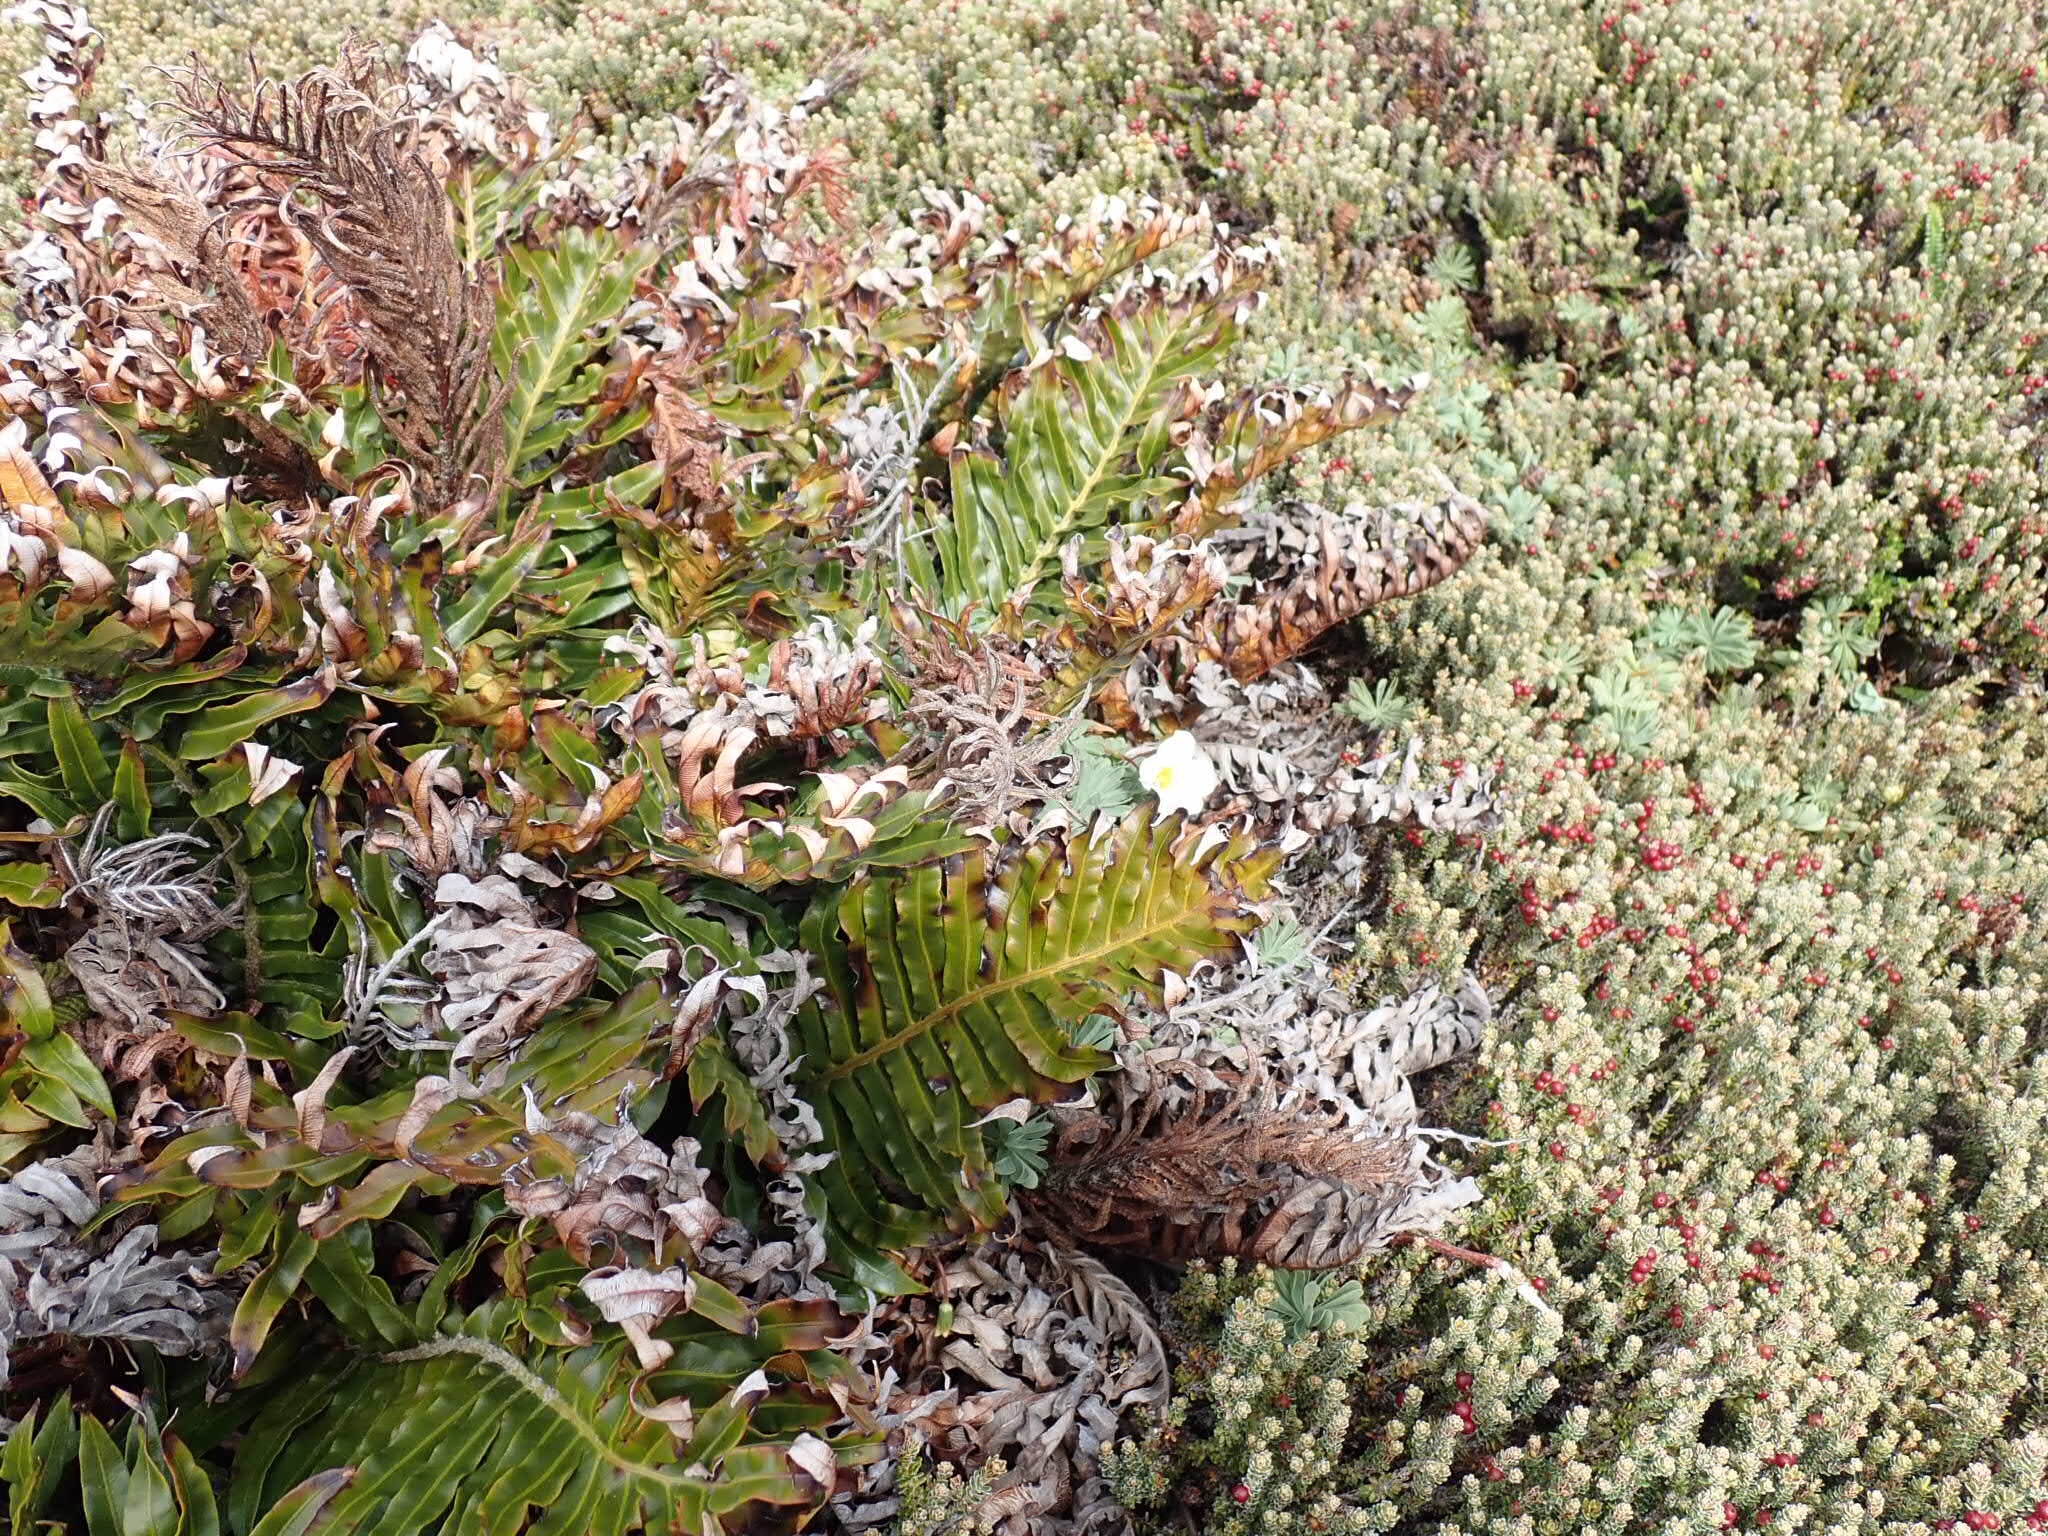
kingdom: Plantae
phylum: Tracheophyta
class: Polypodiopsida
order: Polypodiales
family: Blechnaceae
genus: Lomariocycas
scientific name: Lomariocycas magellanica
